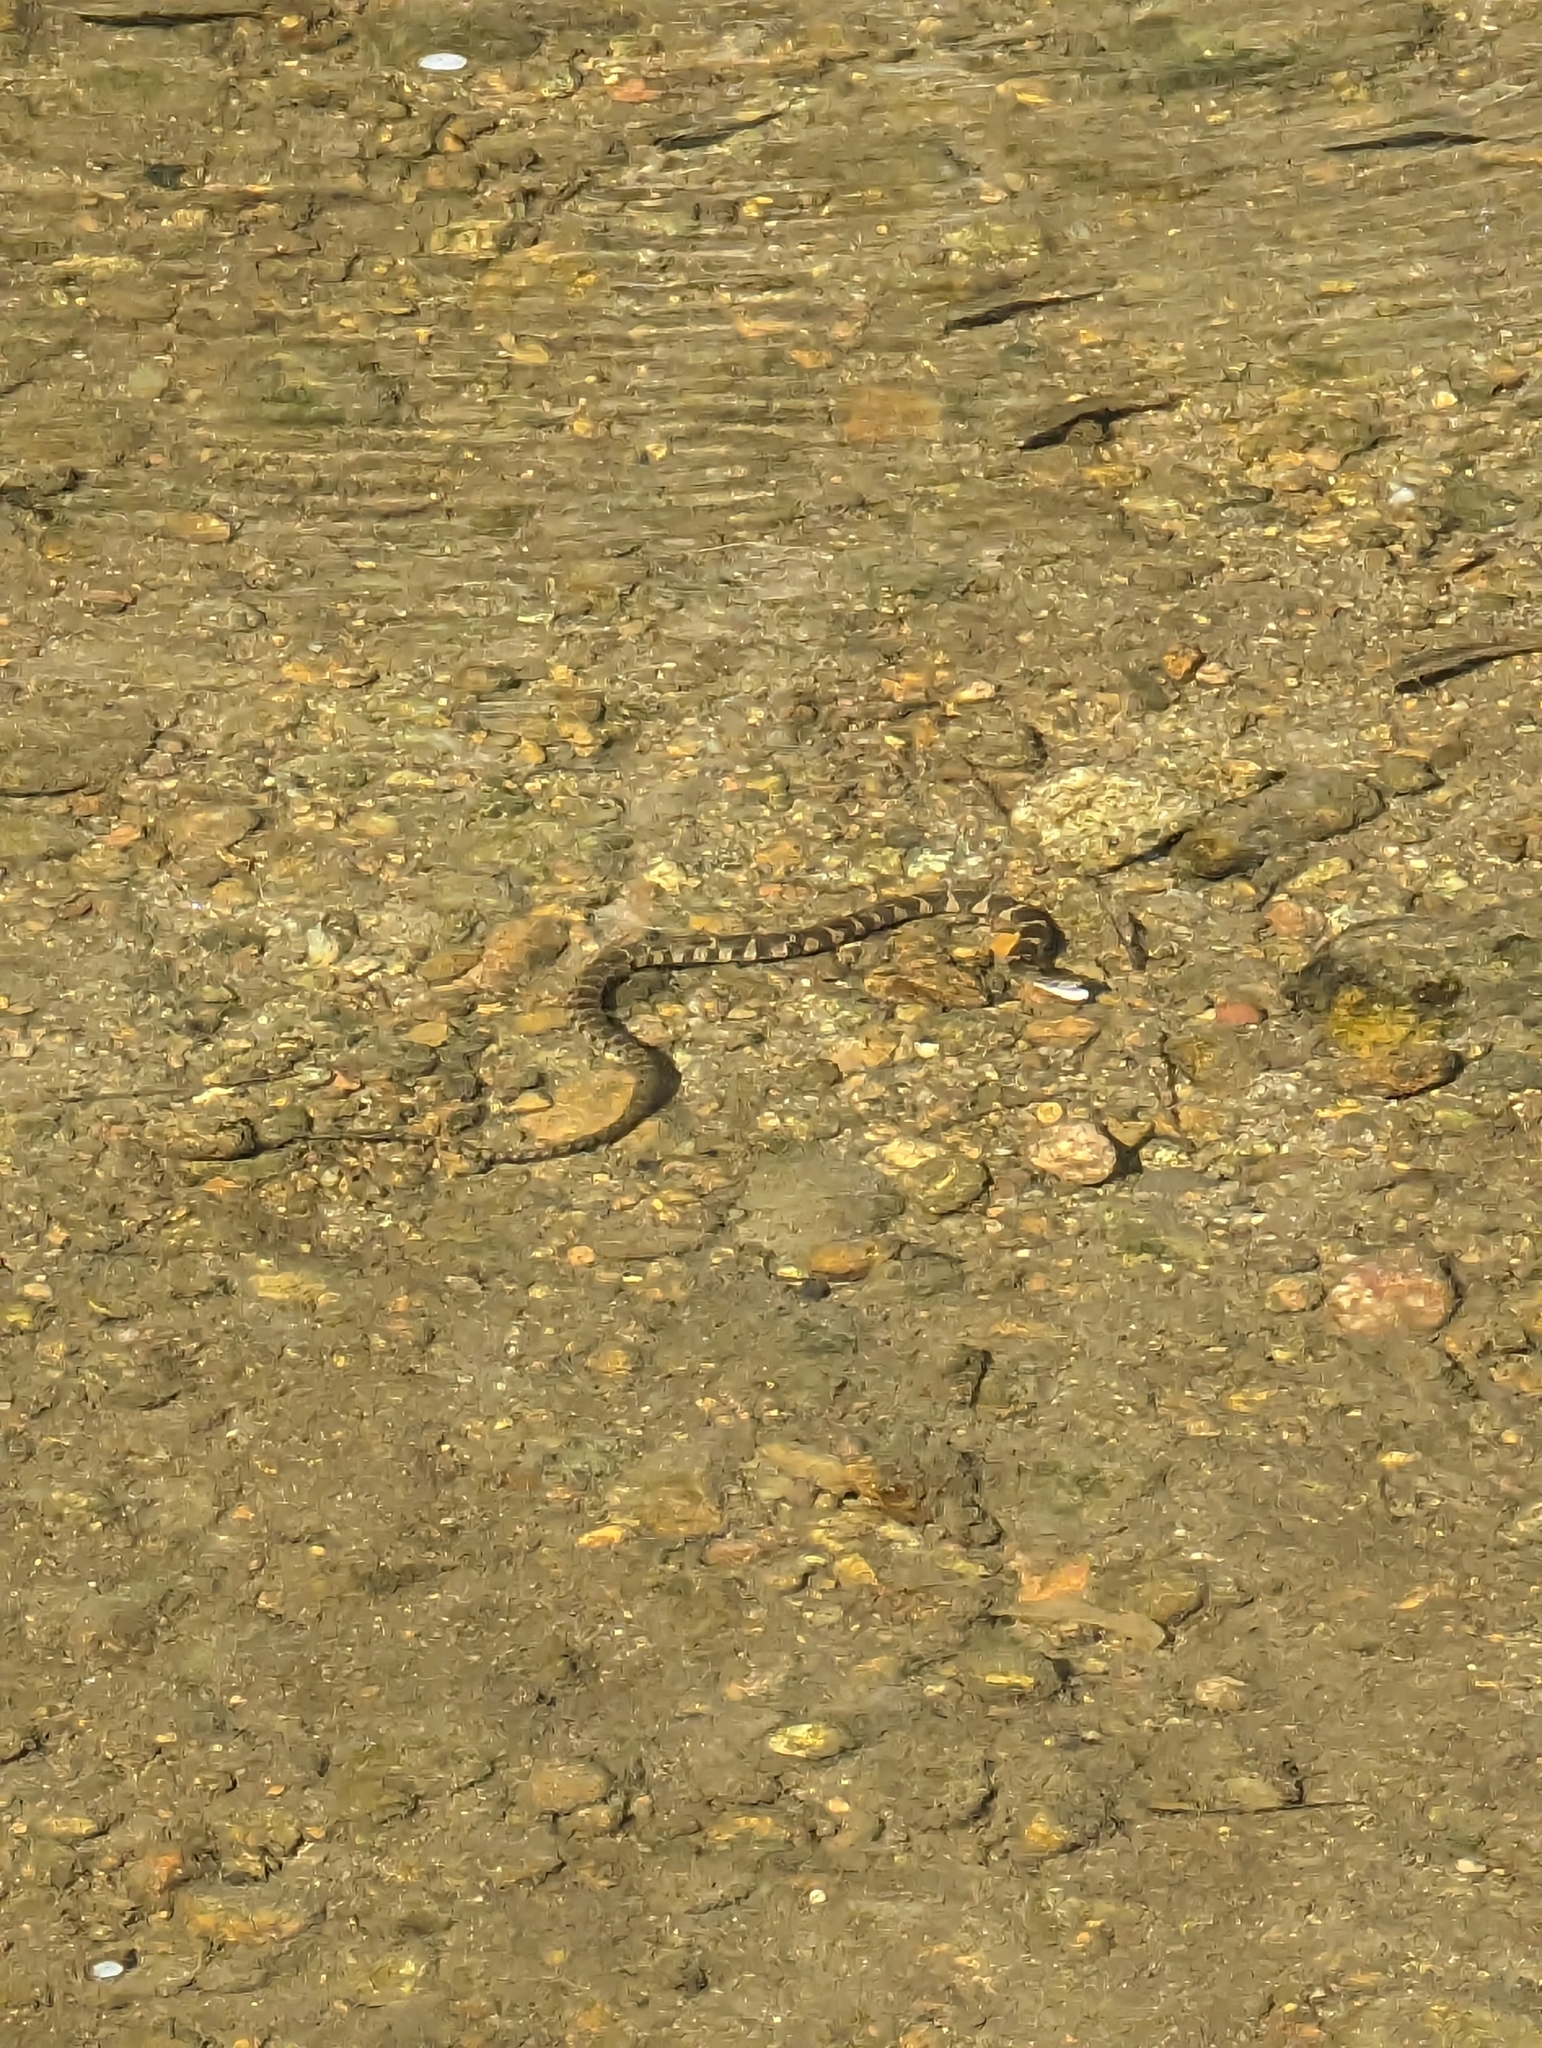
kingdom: Animalia
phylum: Chordata
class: Squamata
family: Colubridae
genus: Nerodia
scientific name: Nerodia sipedon
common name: Northern water snake
